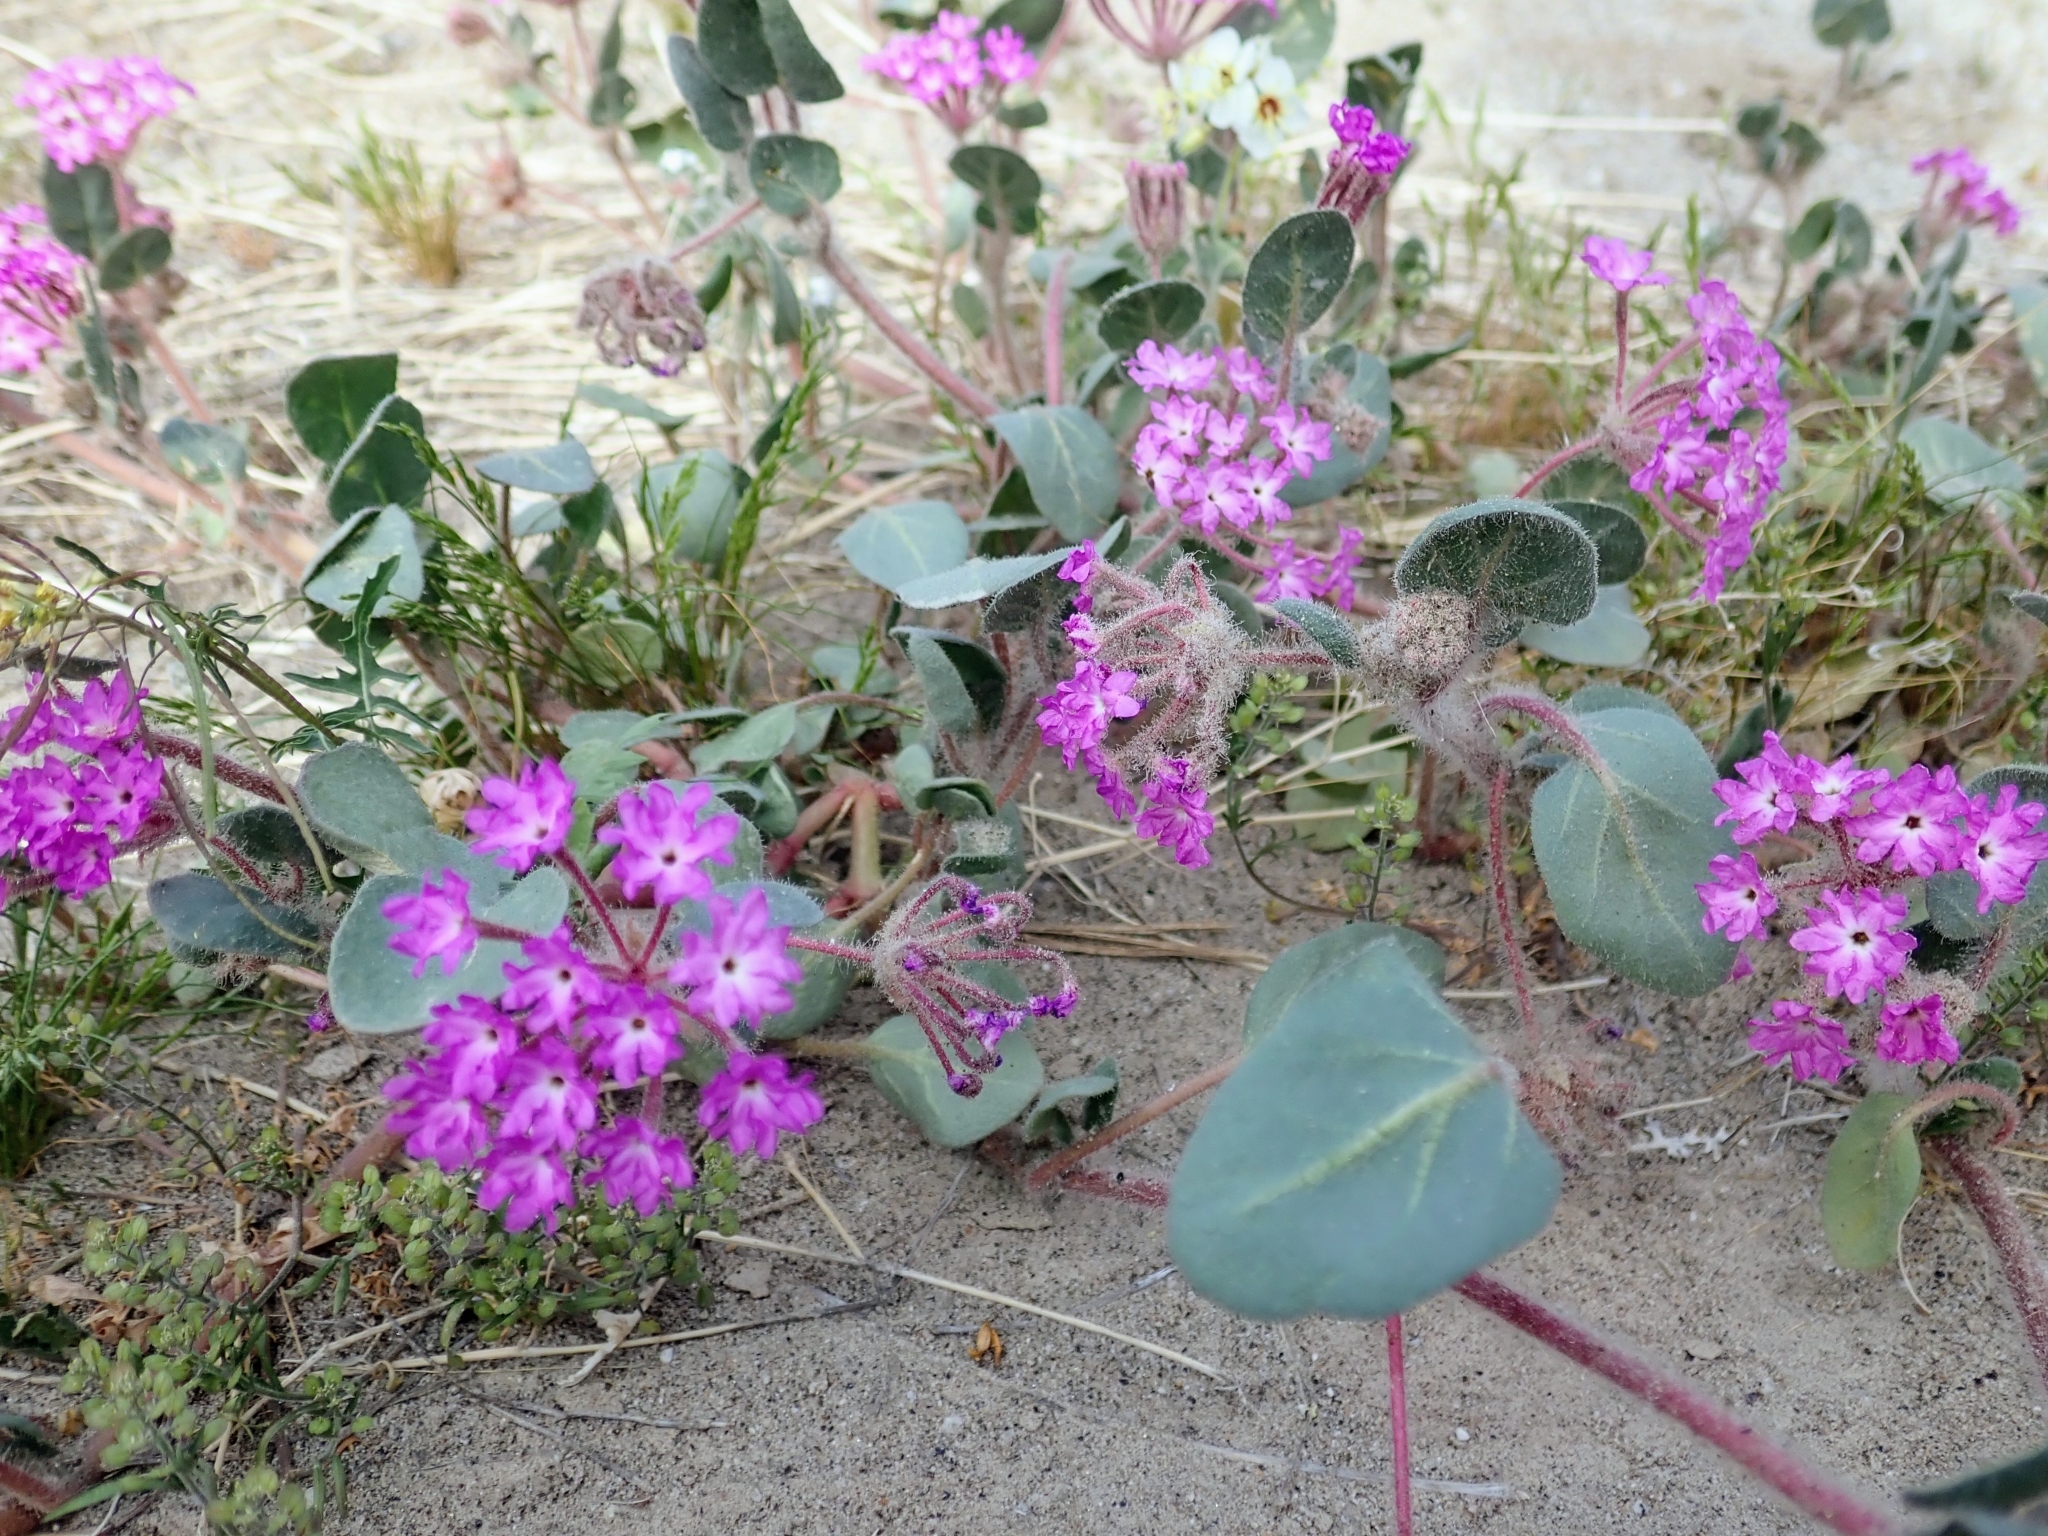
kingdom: Plantae
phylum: Tracheophyta
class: Magnoliopsida
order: Caryophyllales
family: Nyctaginaceae
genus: Abronia
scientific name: Abronia villosa
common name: Desert sand-verbena
